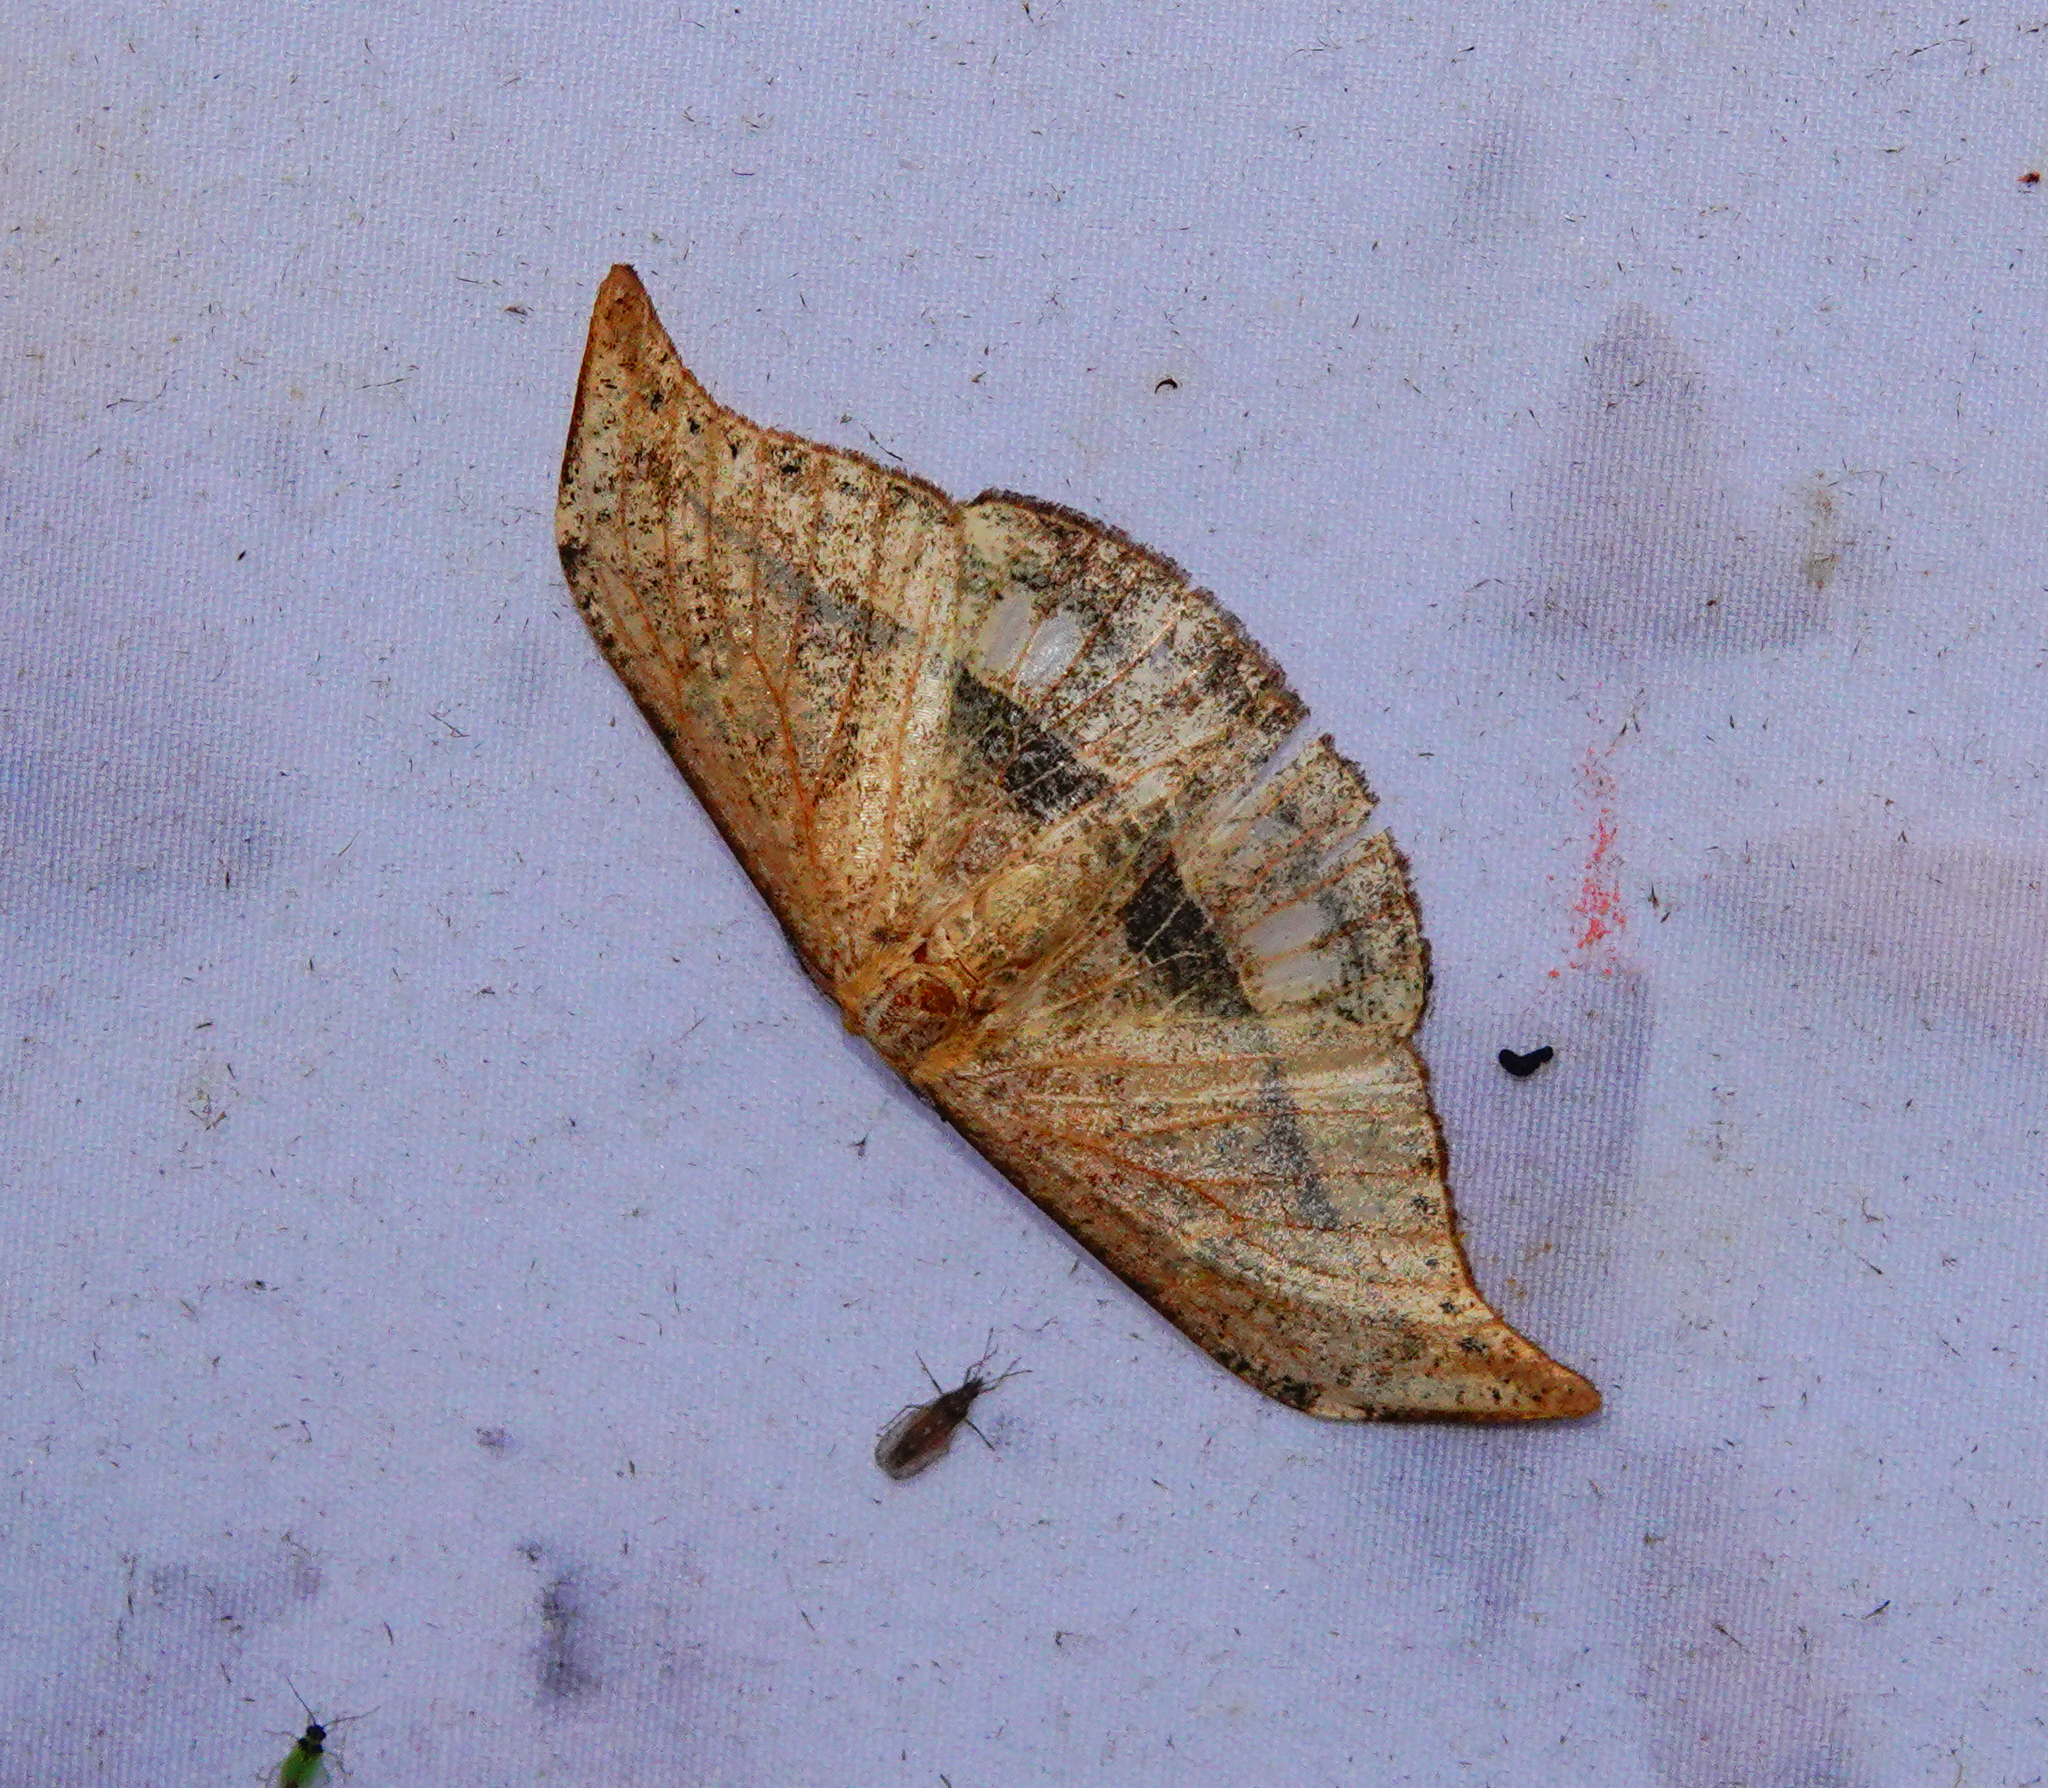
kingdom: Animalia
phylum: Arthropoda
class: Insecta
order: Lepidoptera
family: Drepanidae
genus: Canucha
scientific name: Canucha specularis
